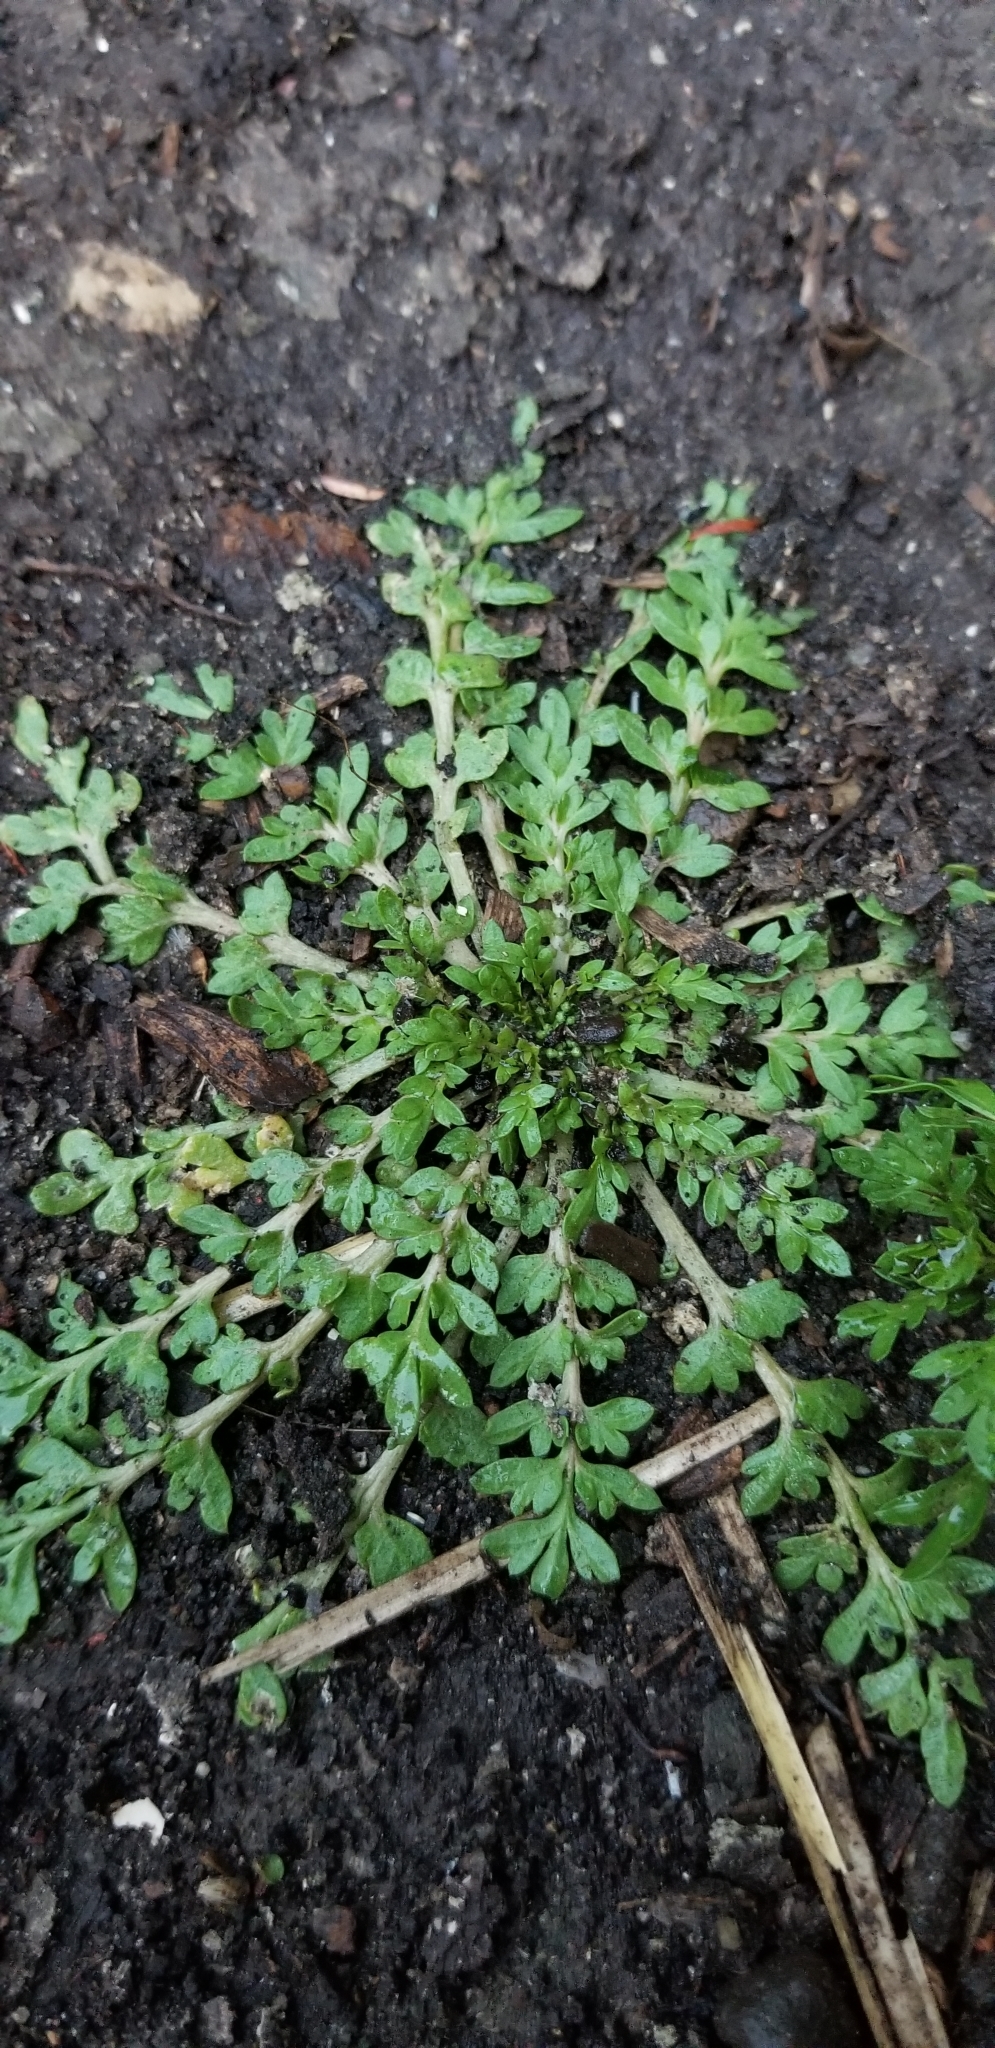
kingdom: Plantae
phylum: Tracheophyta
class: Magnoliopsida
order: Brassicales
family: Brassicaceae
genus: Lepidium
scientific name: Lepidium didymum
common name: Lesser swinecress
